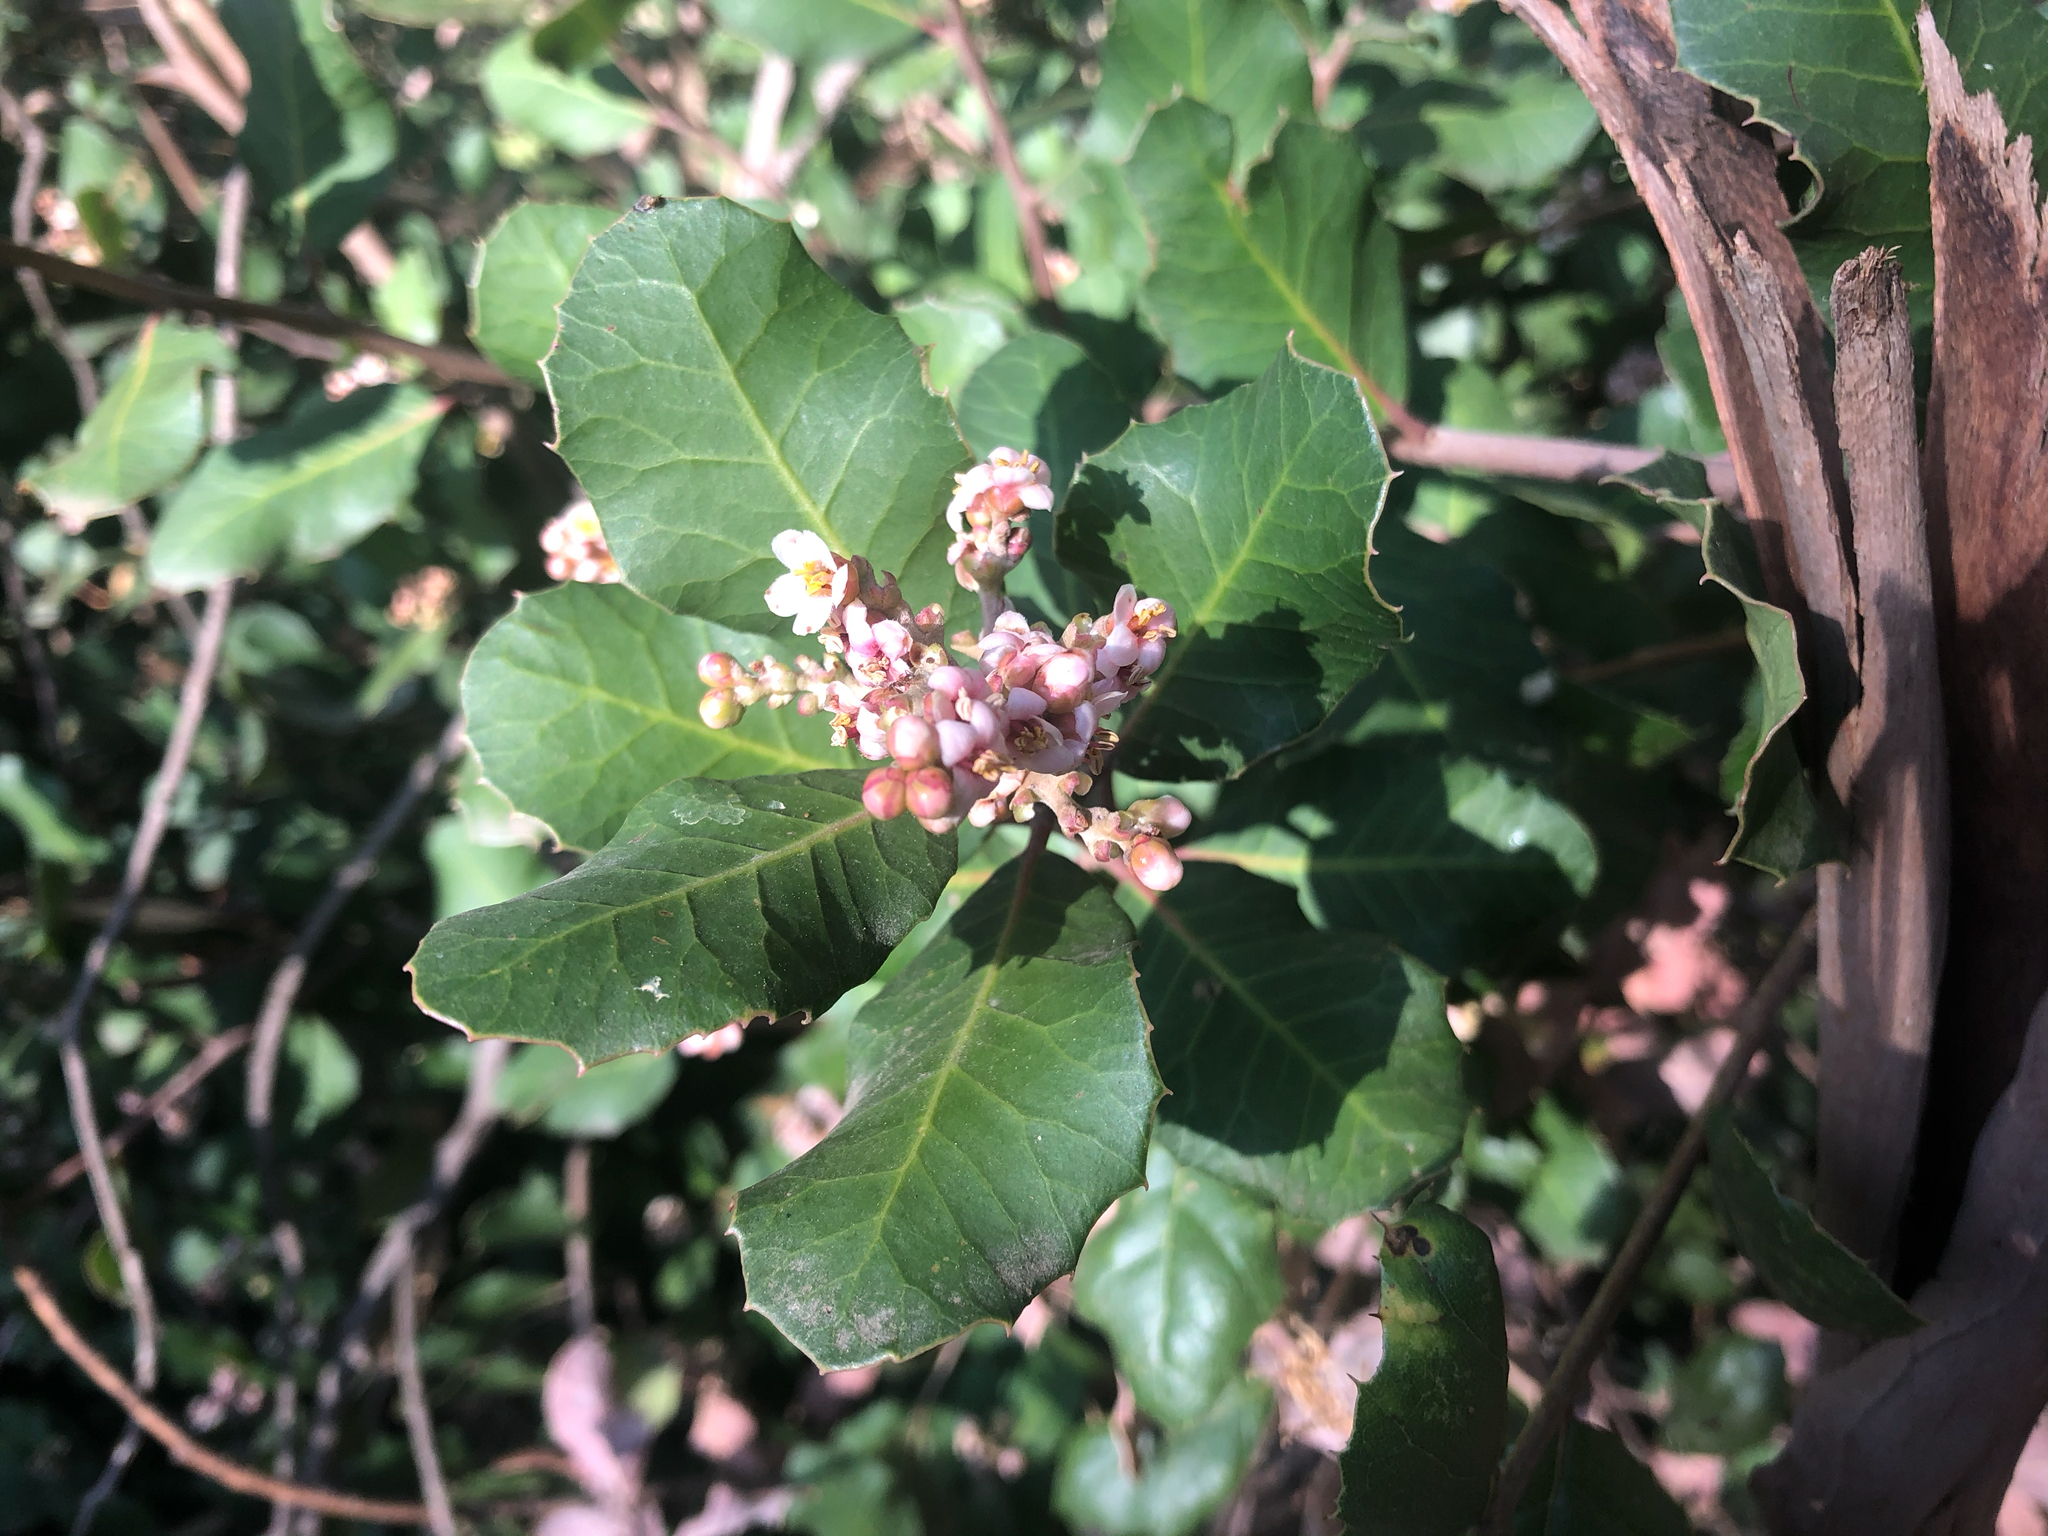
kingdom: Plantae
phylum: Tracheophyta
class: Magnoliopsida
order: Sapindales
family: Anacardiaceae
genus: Rhus
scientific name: Rhus integrifolia
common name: Lemonade sumac
